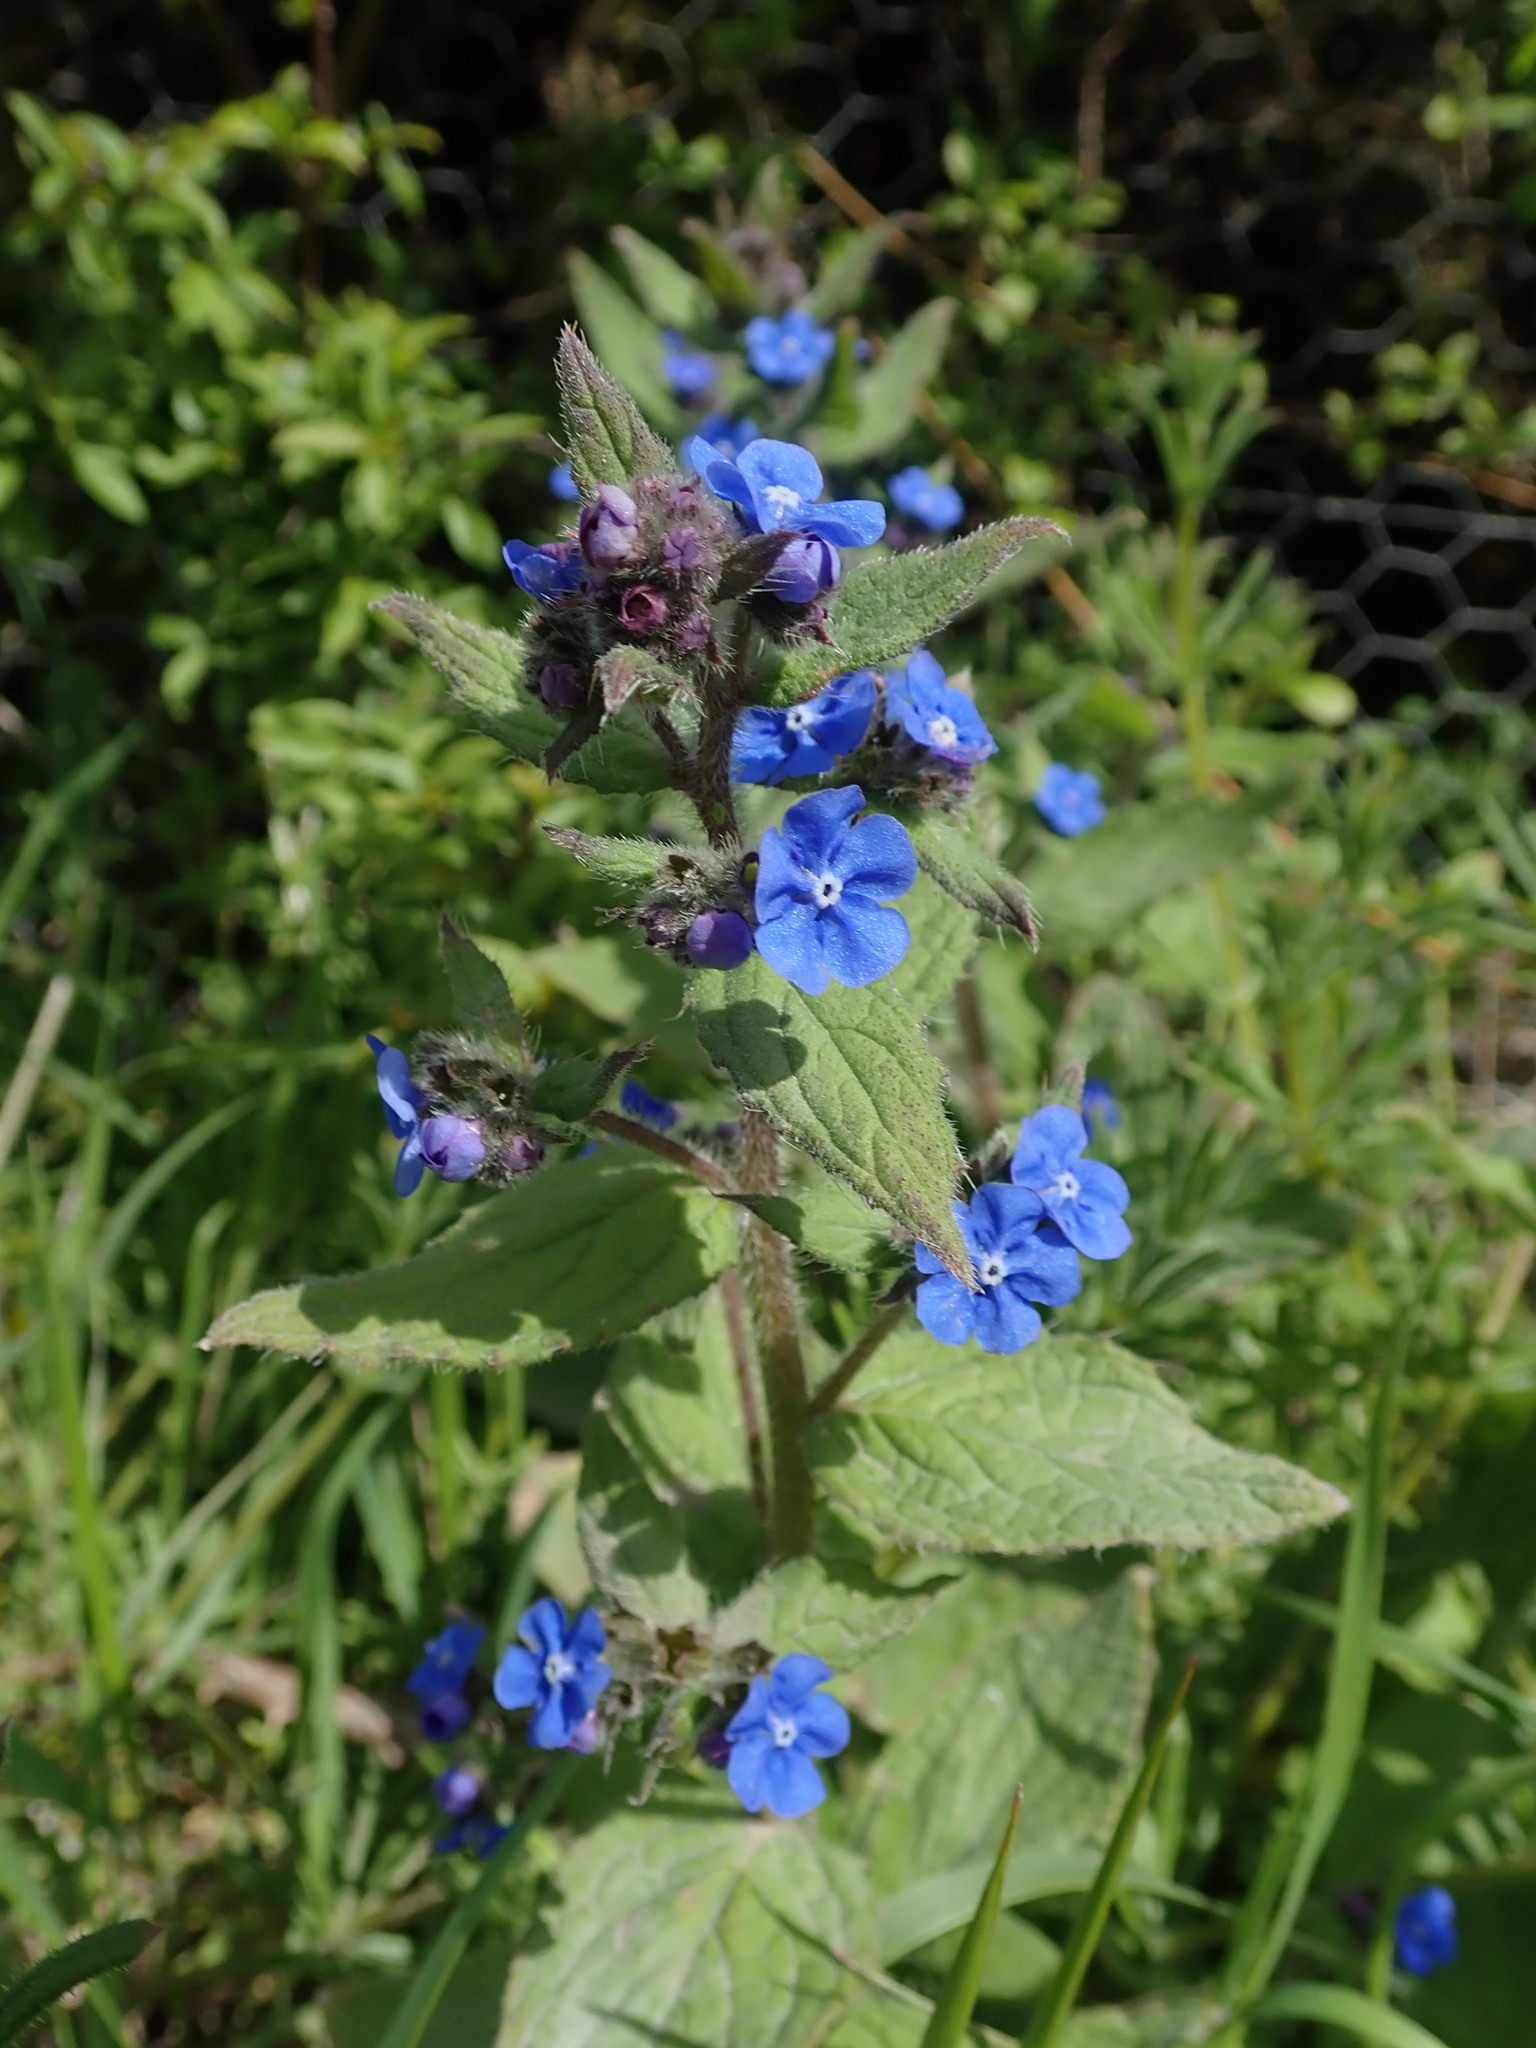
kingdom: Plantae
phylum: Tracheophyta
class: Magnoliopsida
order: Boraginales
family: Boraginaceae
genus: Pentaglottis
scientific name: Pentaglottis sempervirens
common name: Green alkanet
